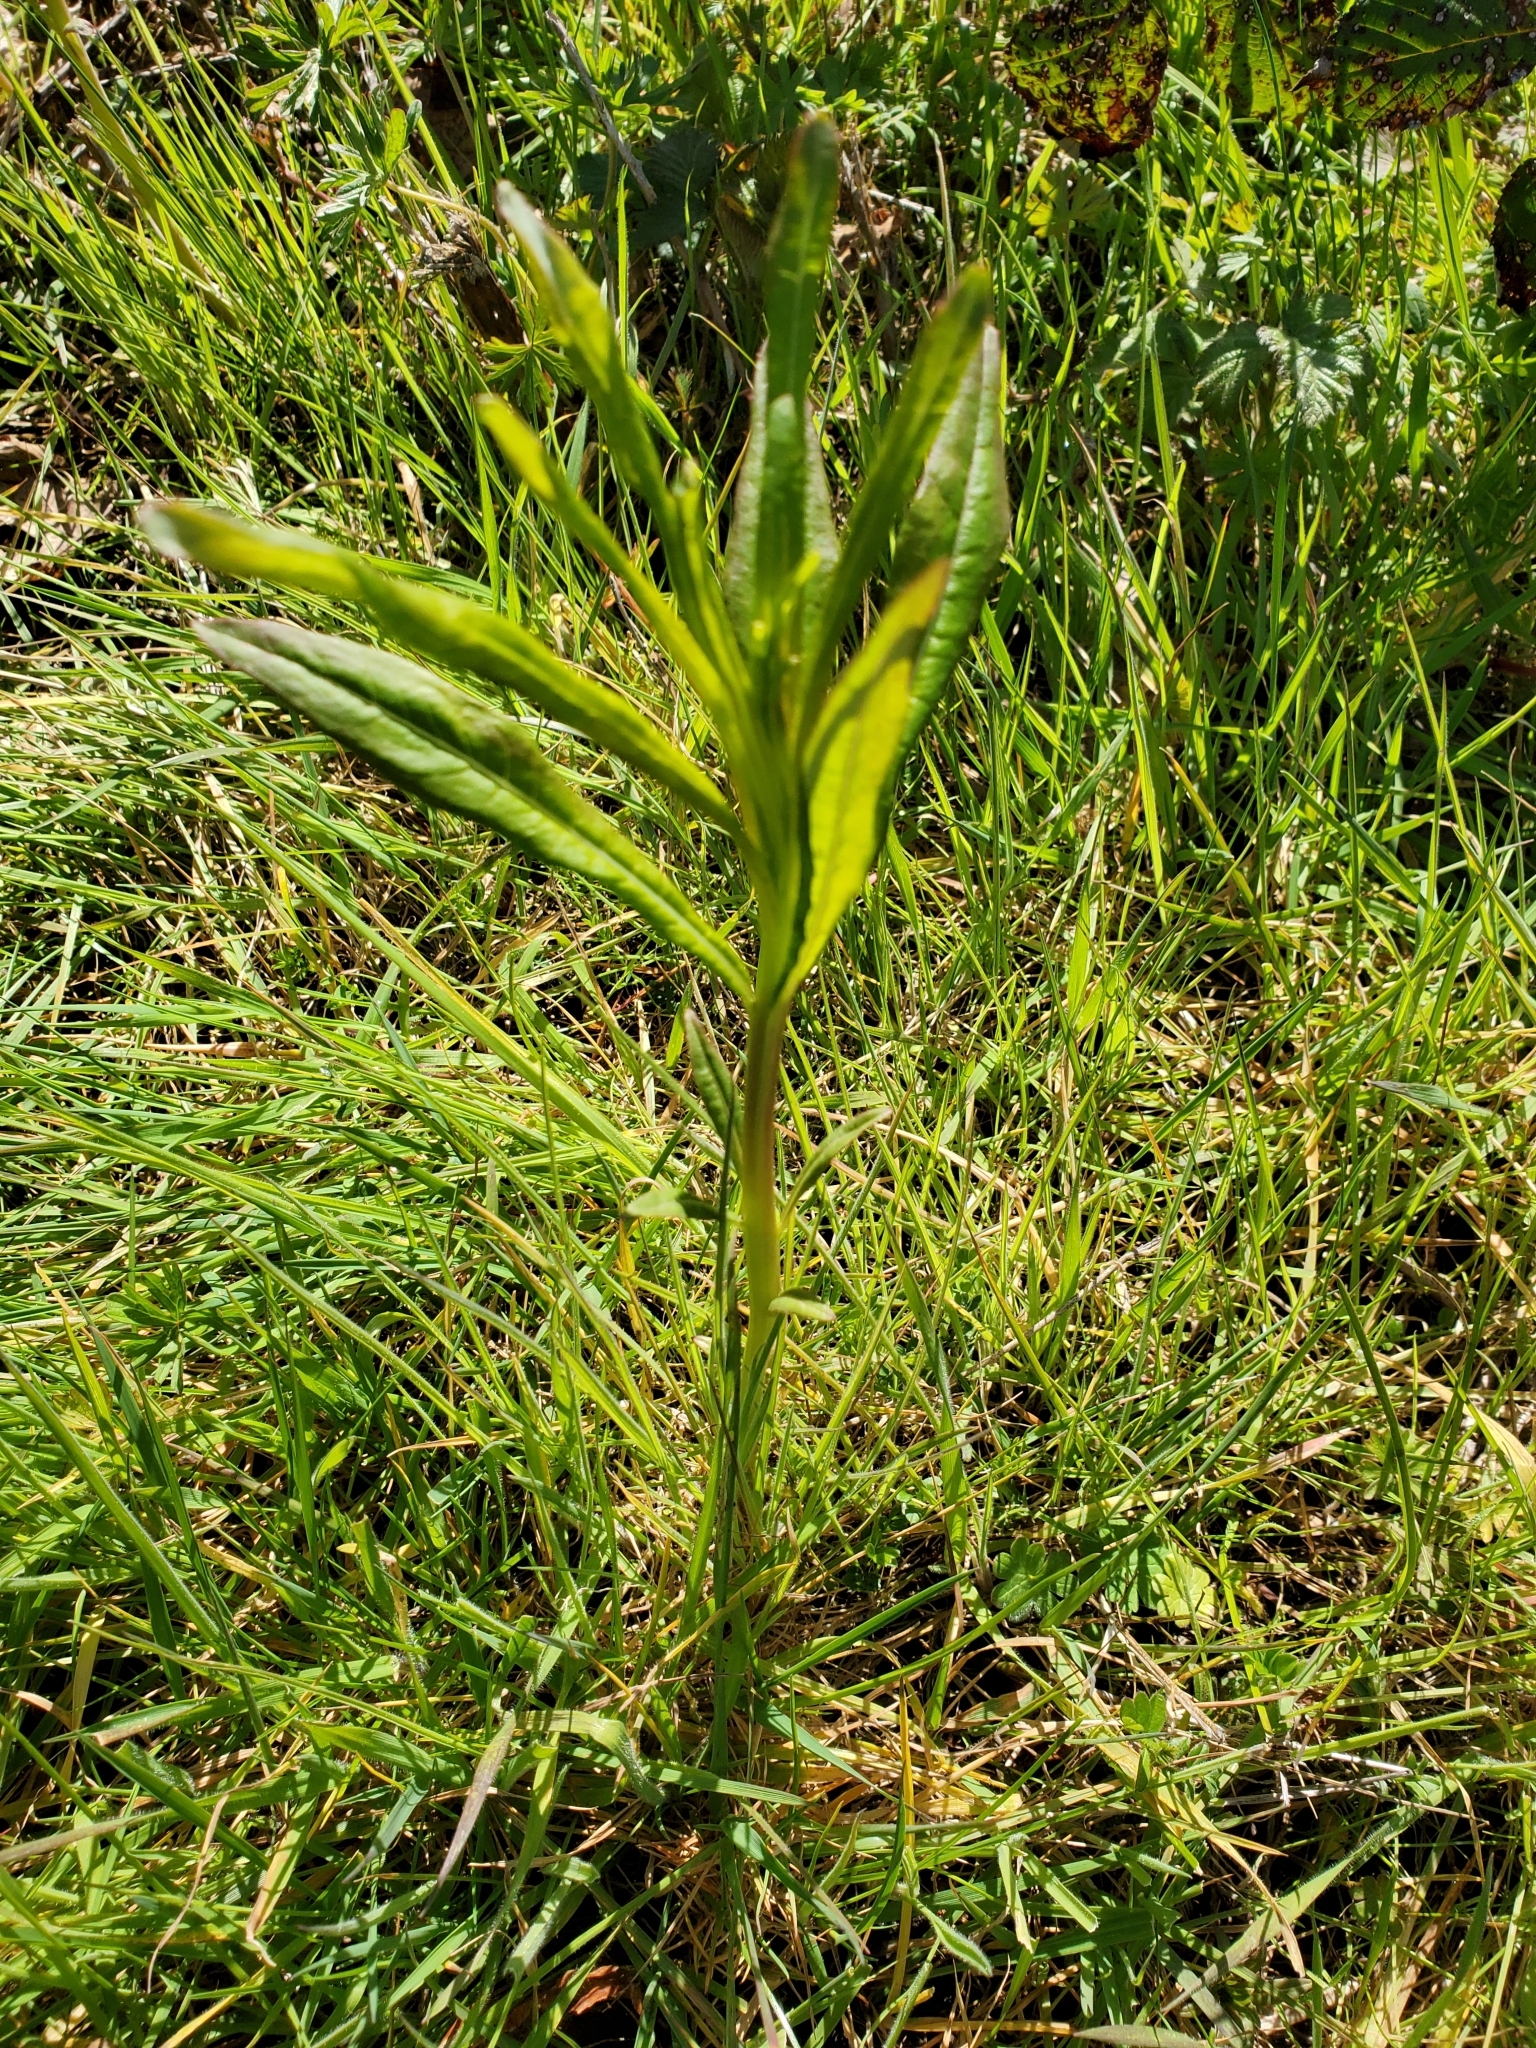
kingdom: Plantae
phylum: Tracheophyta
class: Magnoliopsida
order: Myrtales
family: Onagraceae
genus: Chamaenerion
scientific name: Chamaenerion angustifolium
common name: Fireweed
